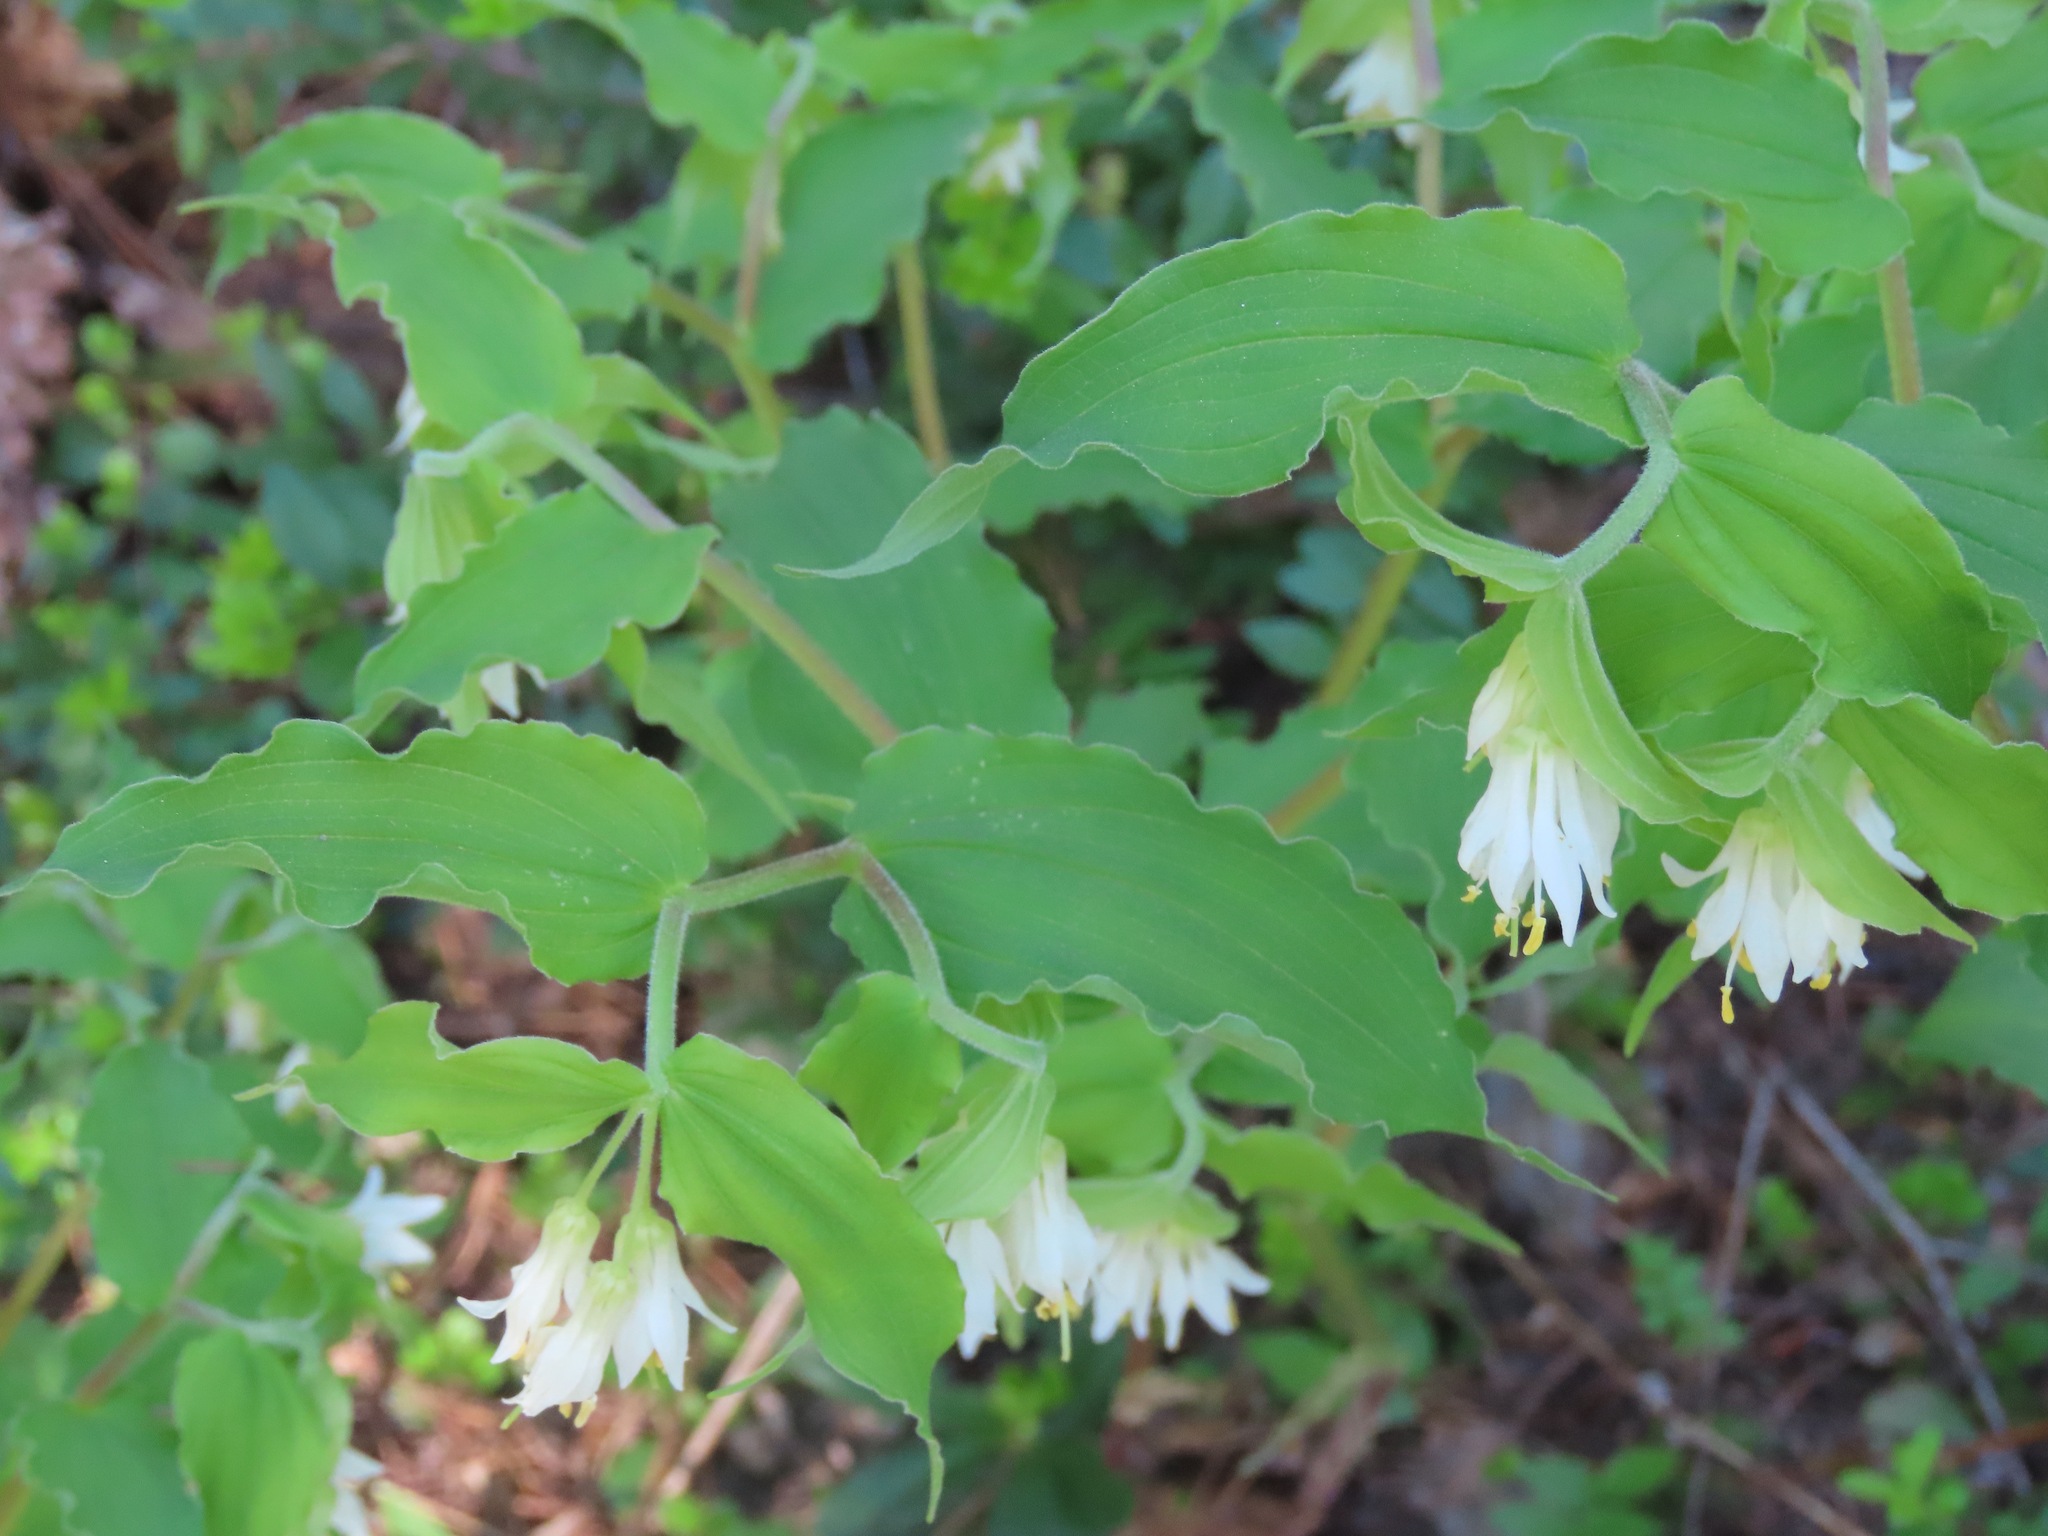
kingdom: Plantae
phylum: Tracheophyta
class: Liliopsida
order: Liliales
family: Liliaceae
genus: Prosartes
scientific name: Prosartes hookeri
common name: Fairy-bells
